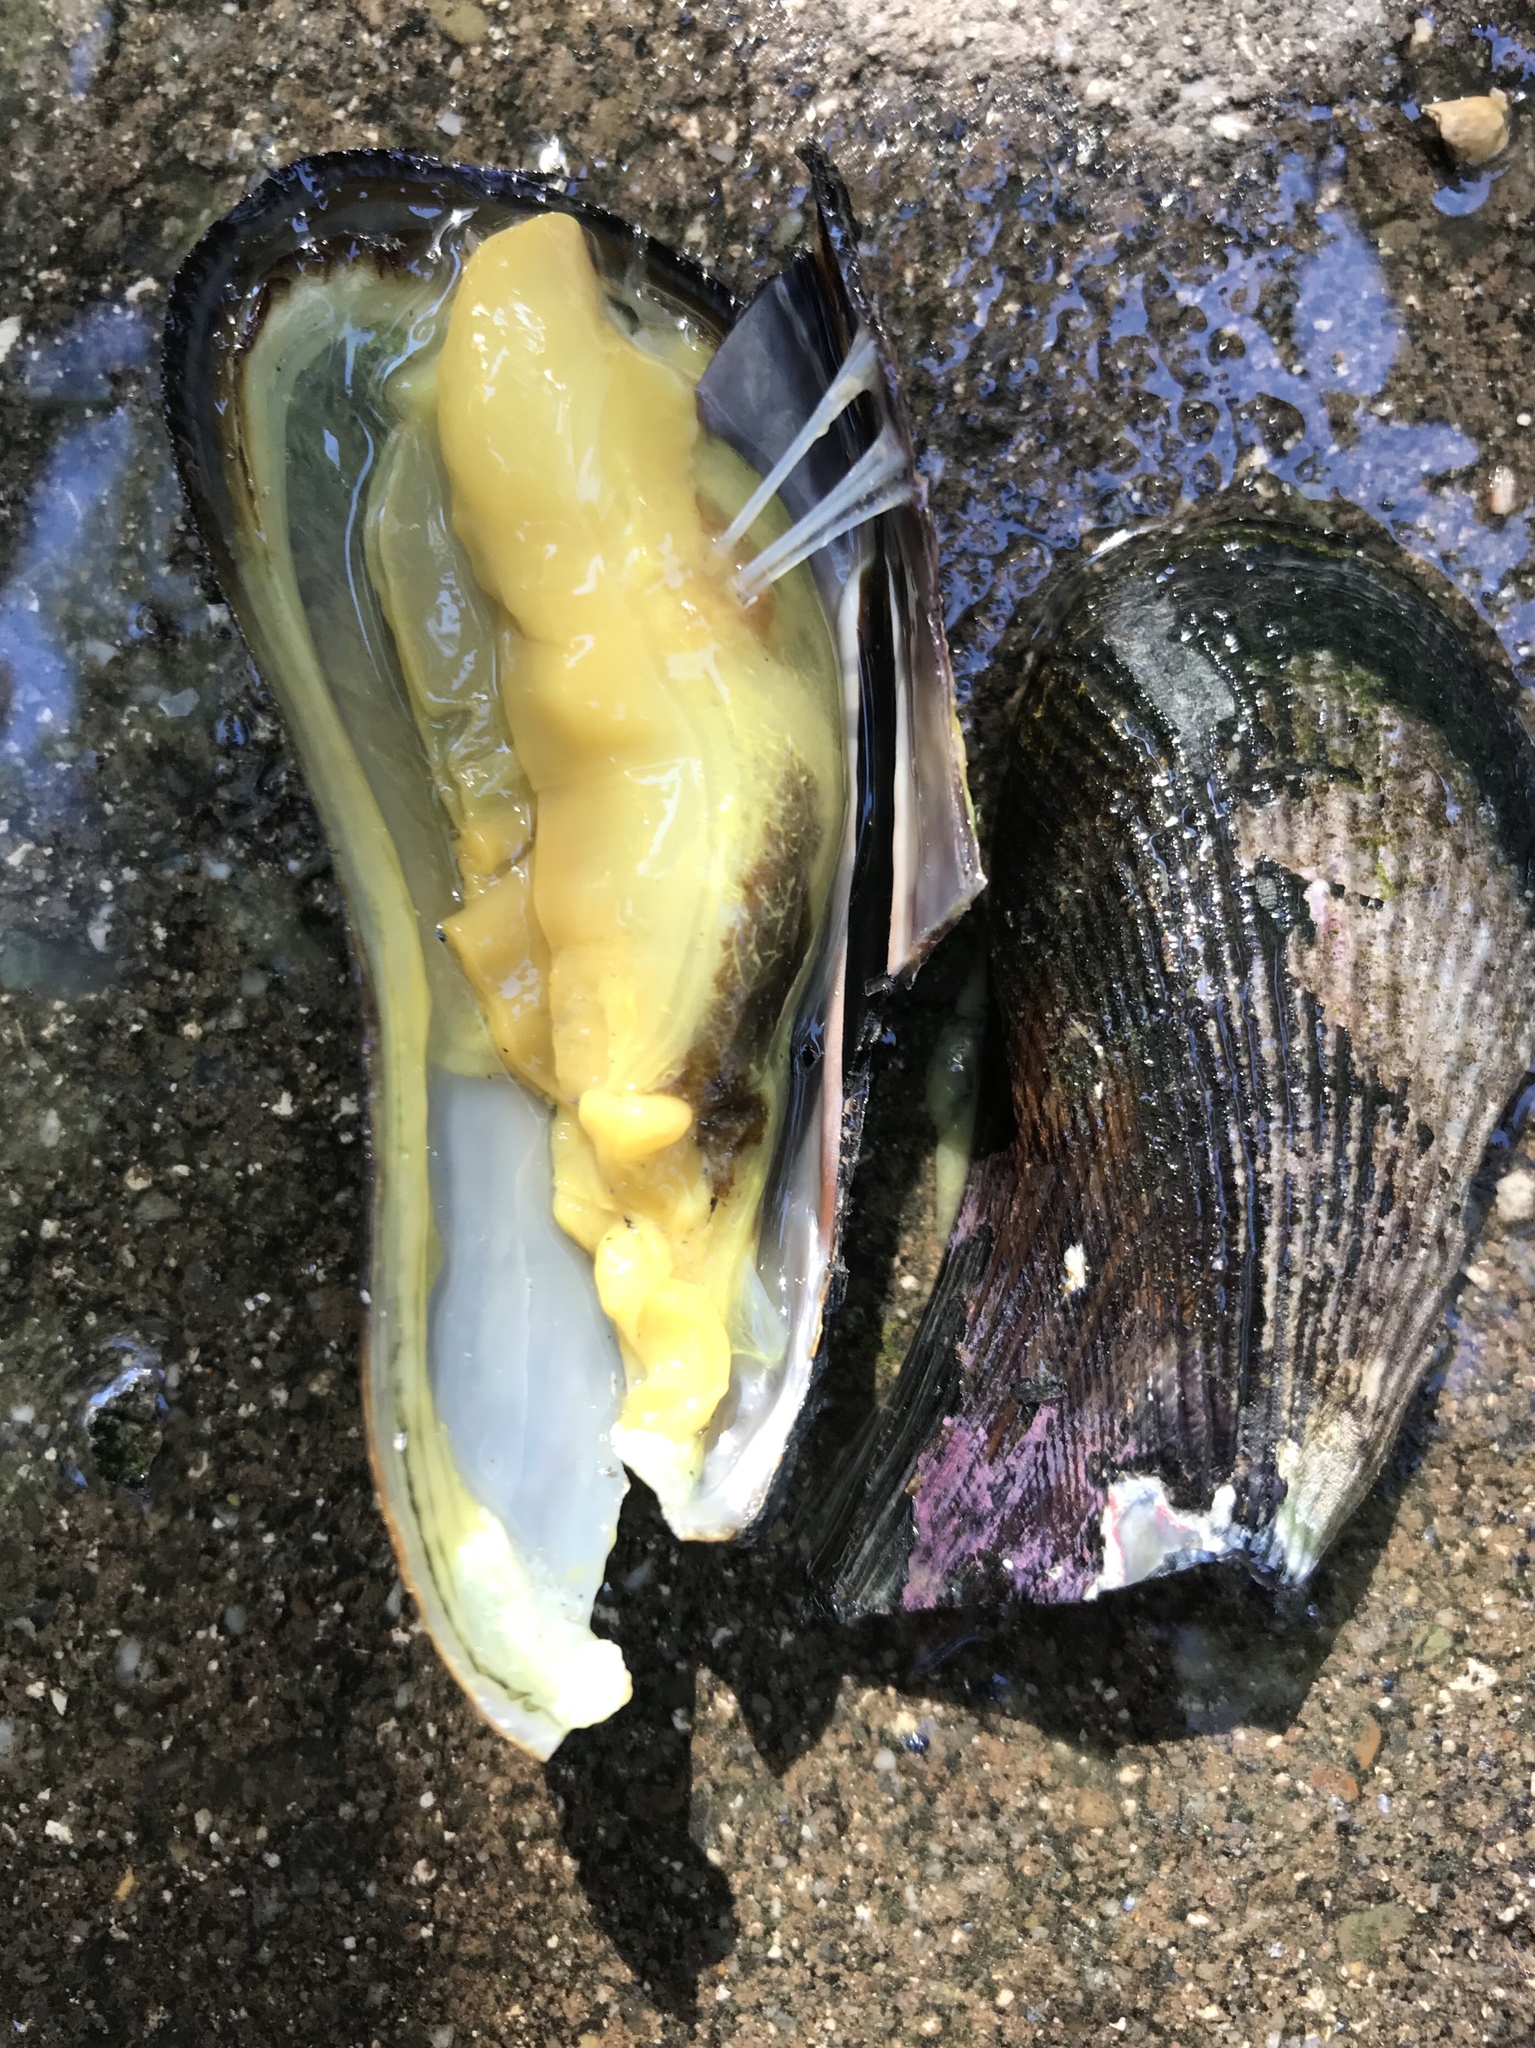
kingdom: Animalia
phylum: Mollusca
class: Bivalvia
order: Mytilida
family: Mytilidae
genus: Geukensia
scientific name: Geukensia demissa
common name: Ribbed mussel
